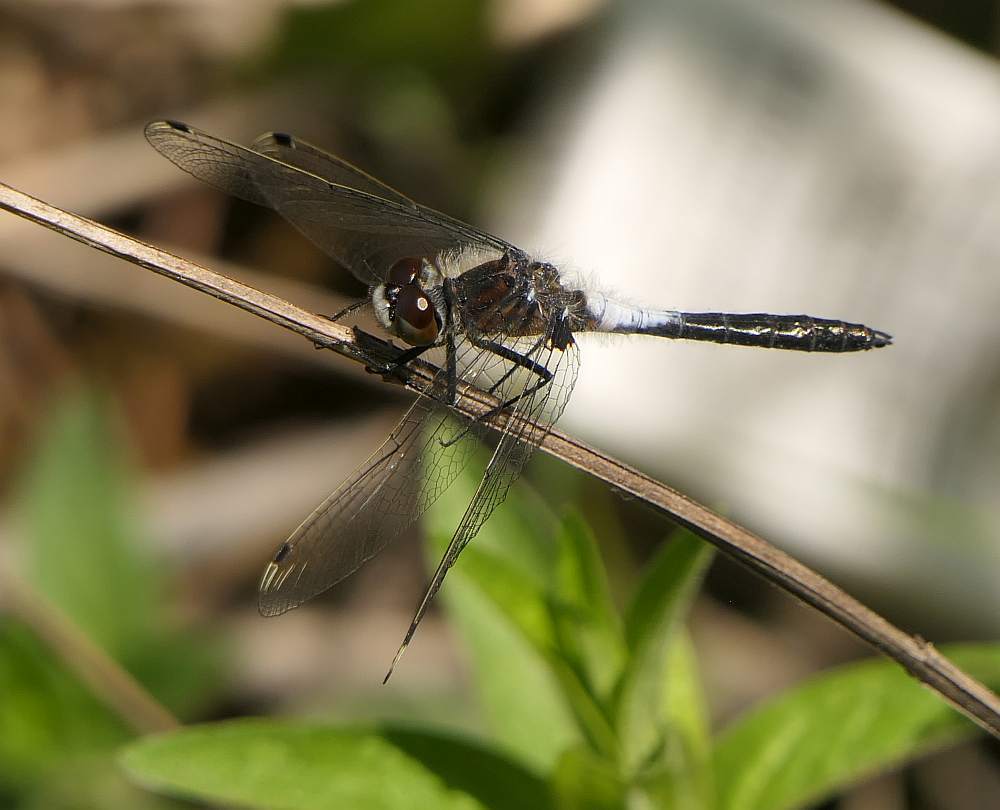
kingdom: Animalia
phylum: Arthropoda
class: Insecta
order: Odonata
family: Libellulidae
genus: Leucorrhinia
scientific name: Leucorrhinia frigida
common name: Frosted whiteface
